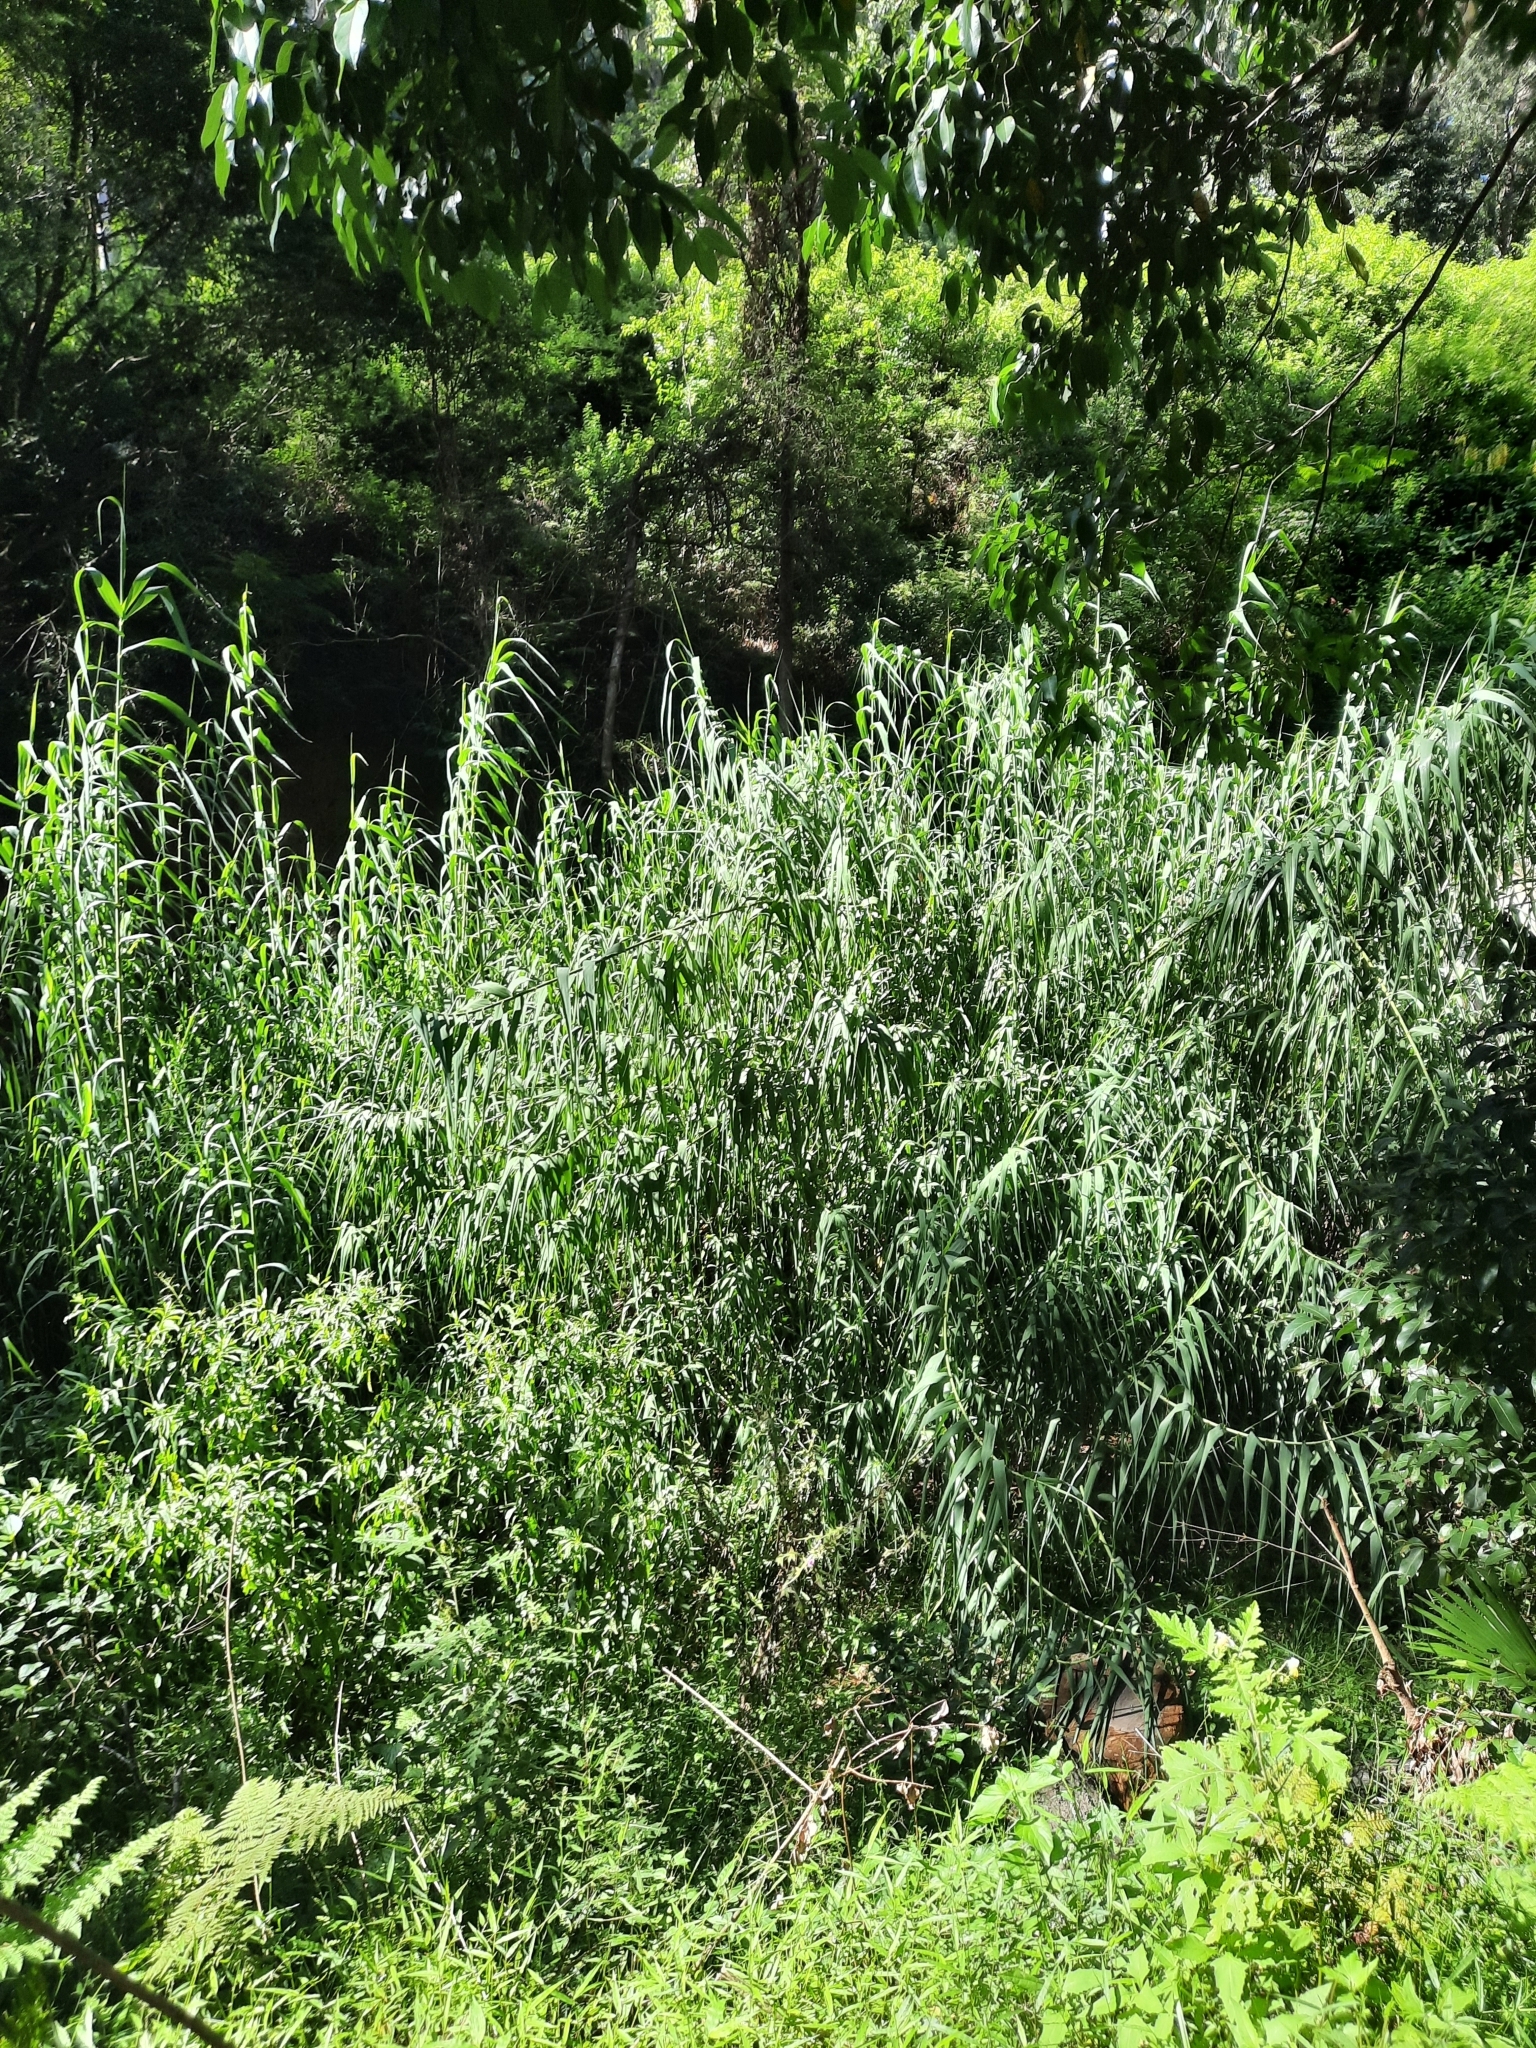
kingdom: Plantae
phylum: Tracheophyta
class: Liliopsida
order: Poales
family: Poaceae
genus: Arundo
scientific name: Arundo donax
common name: Giant reed
